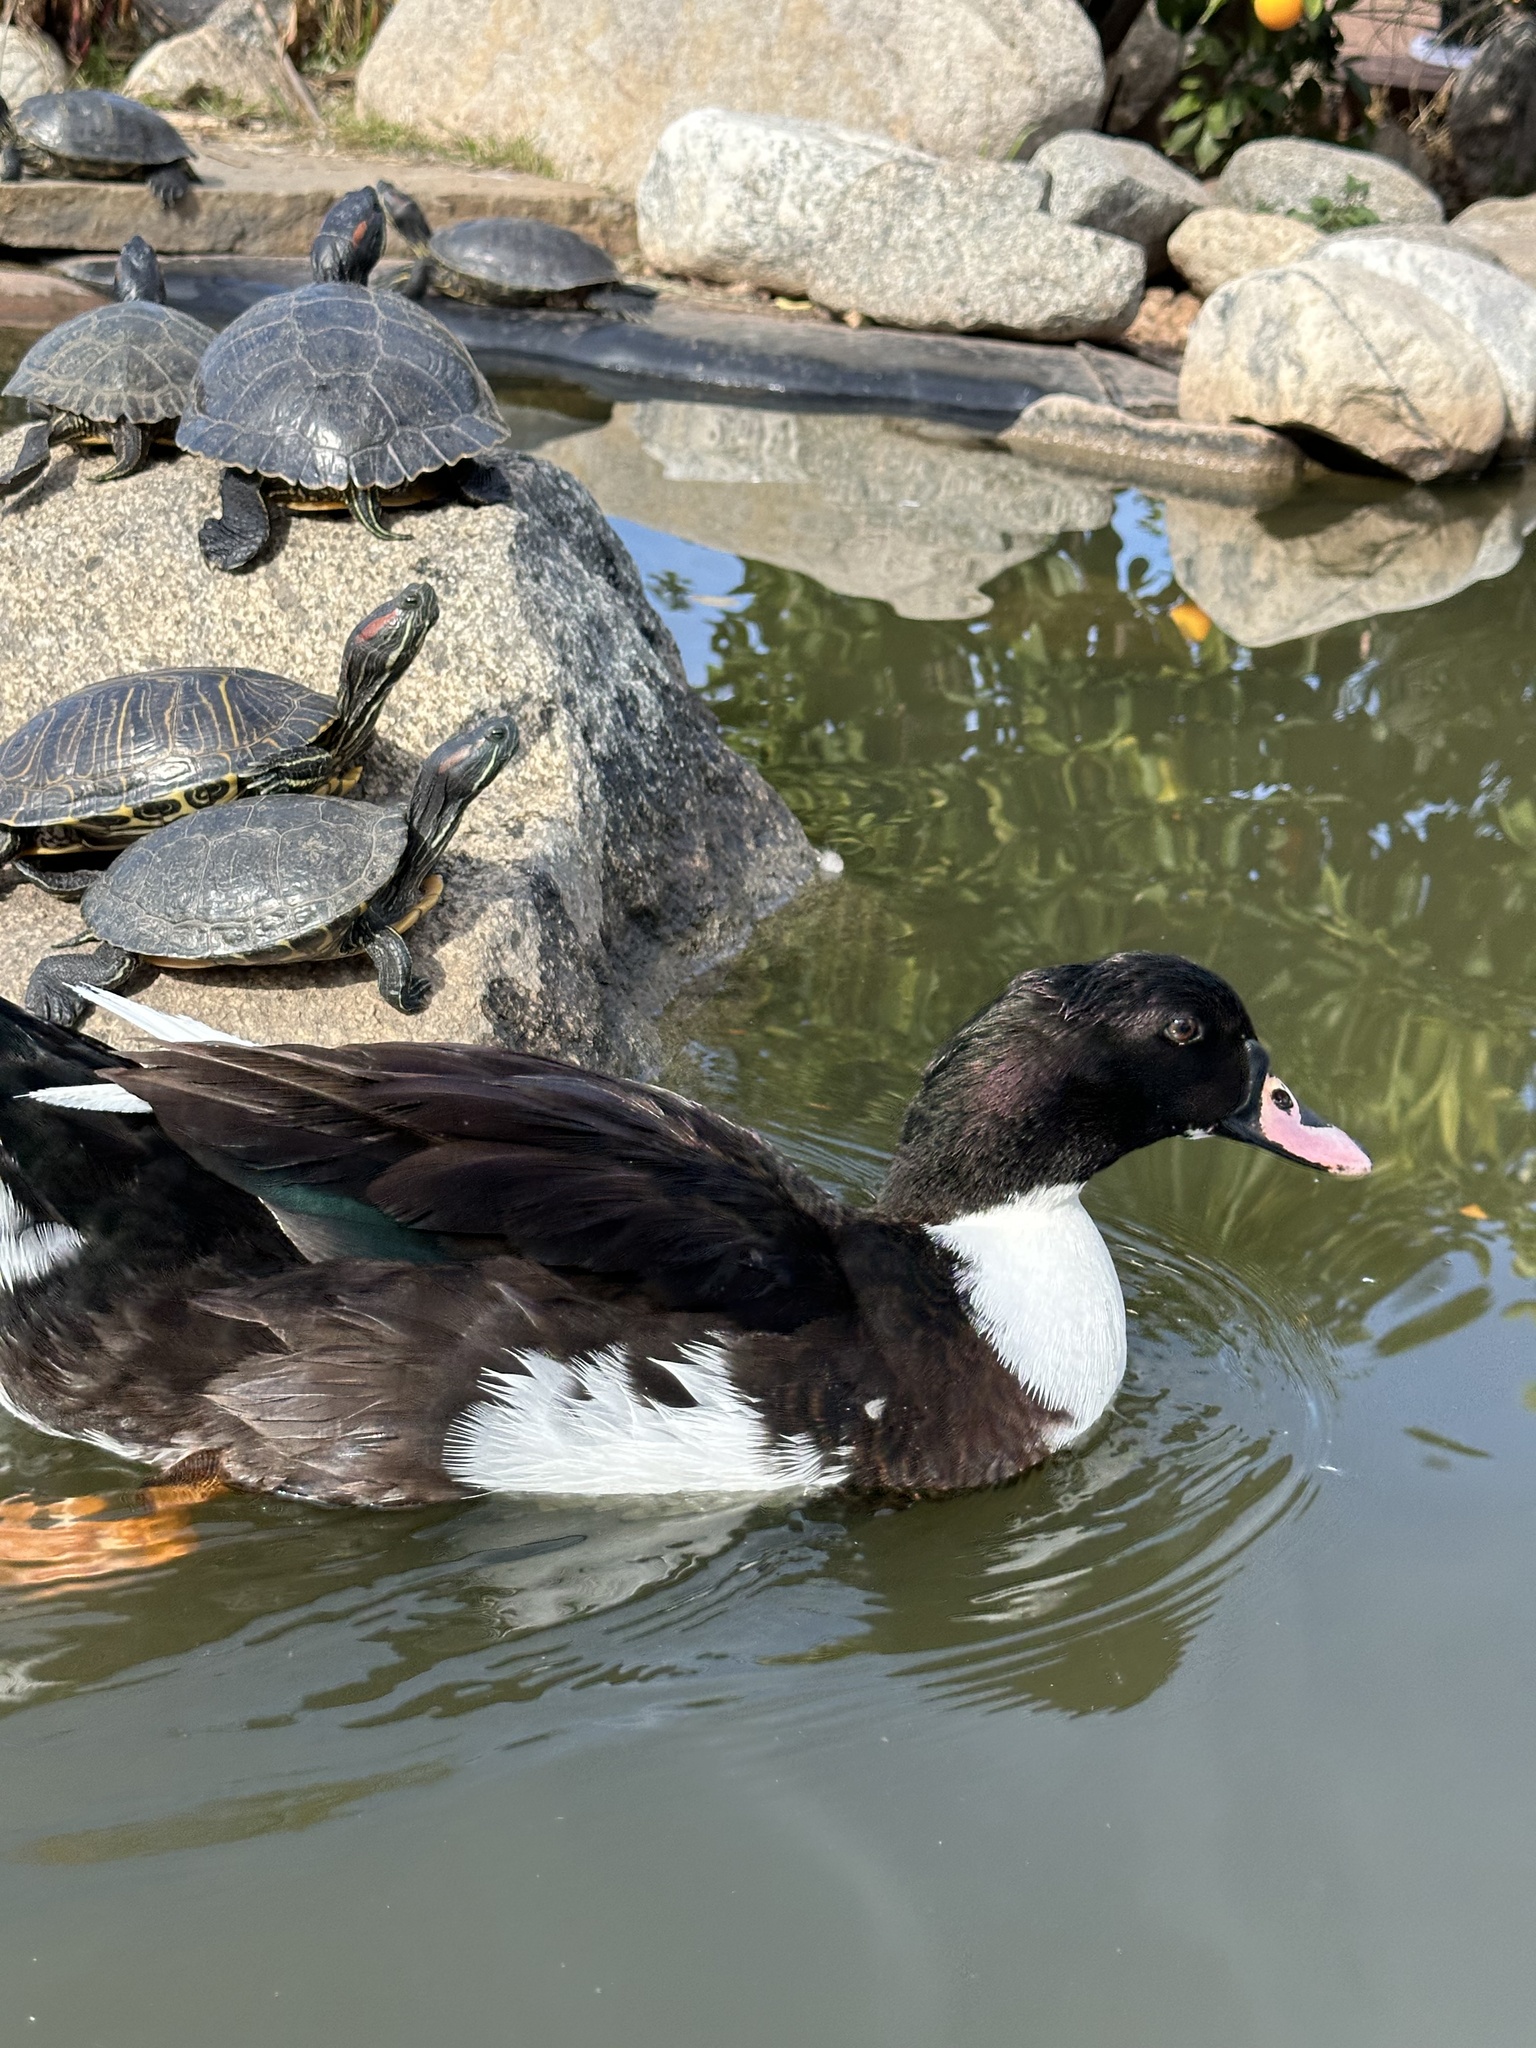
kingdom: Animalia
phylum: Chordata
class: Aves
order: Anseriformes
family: Anatidae
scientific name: Anatidae
